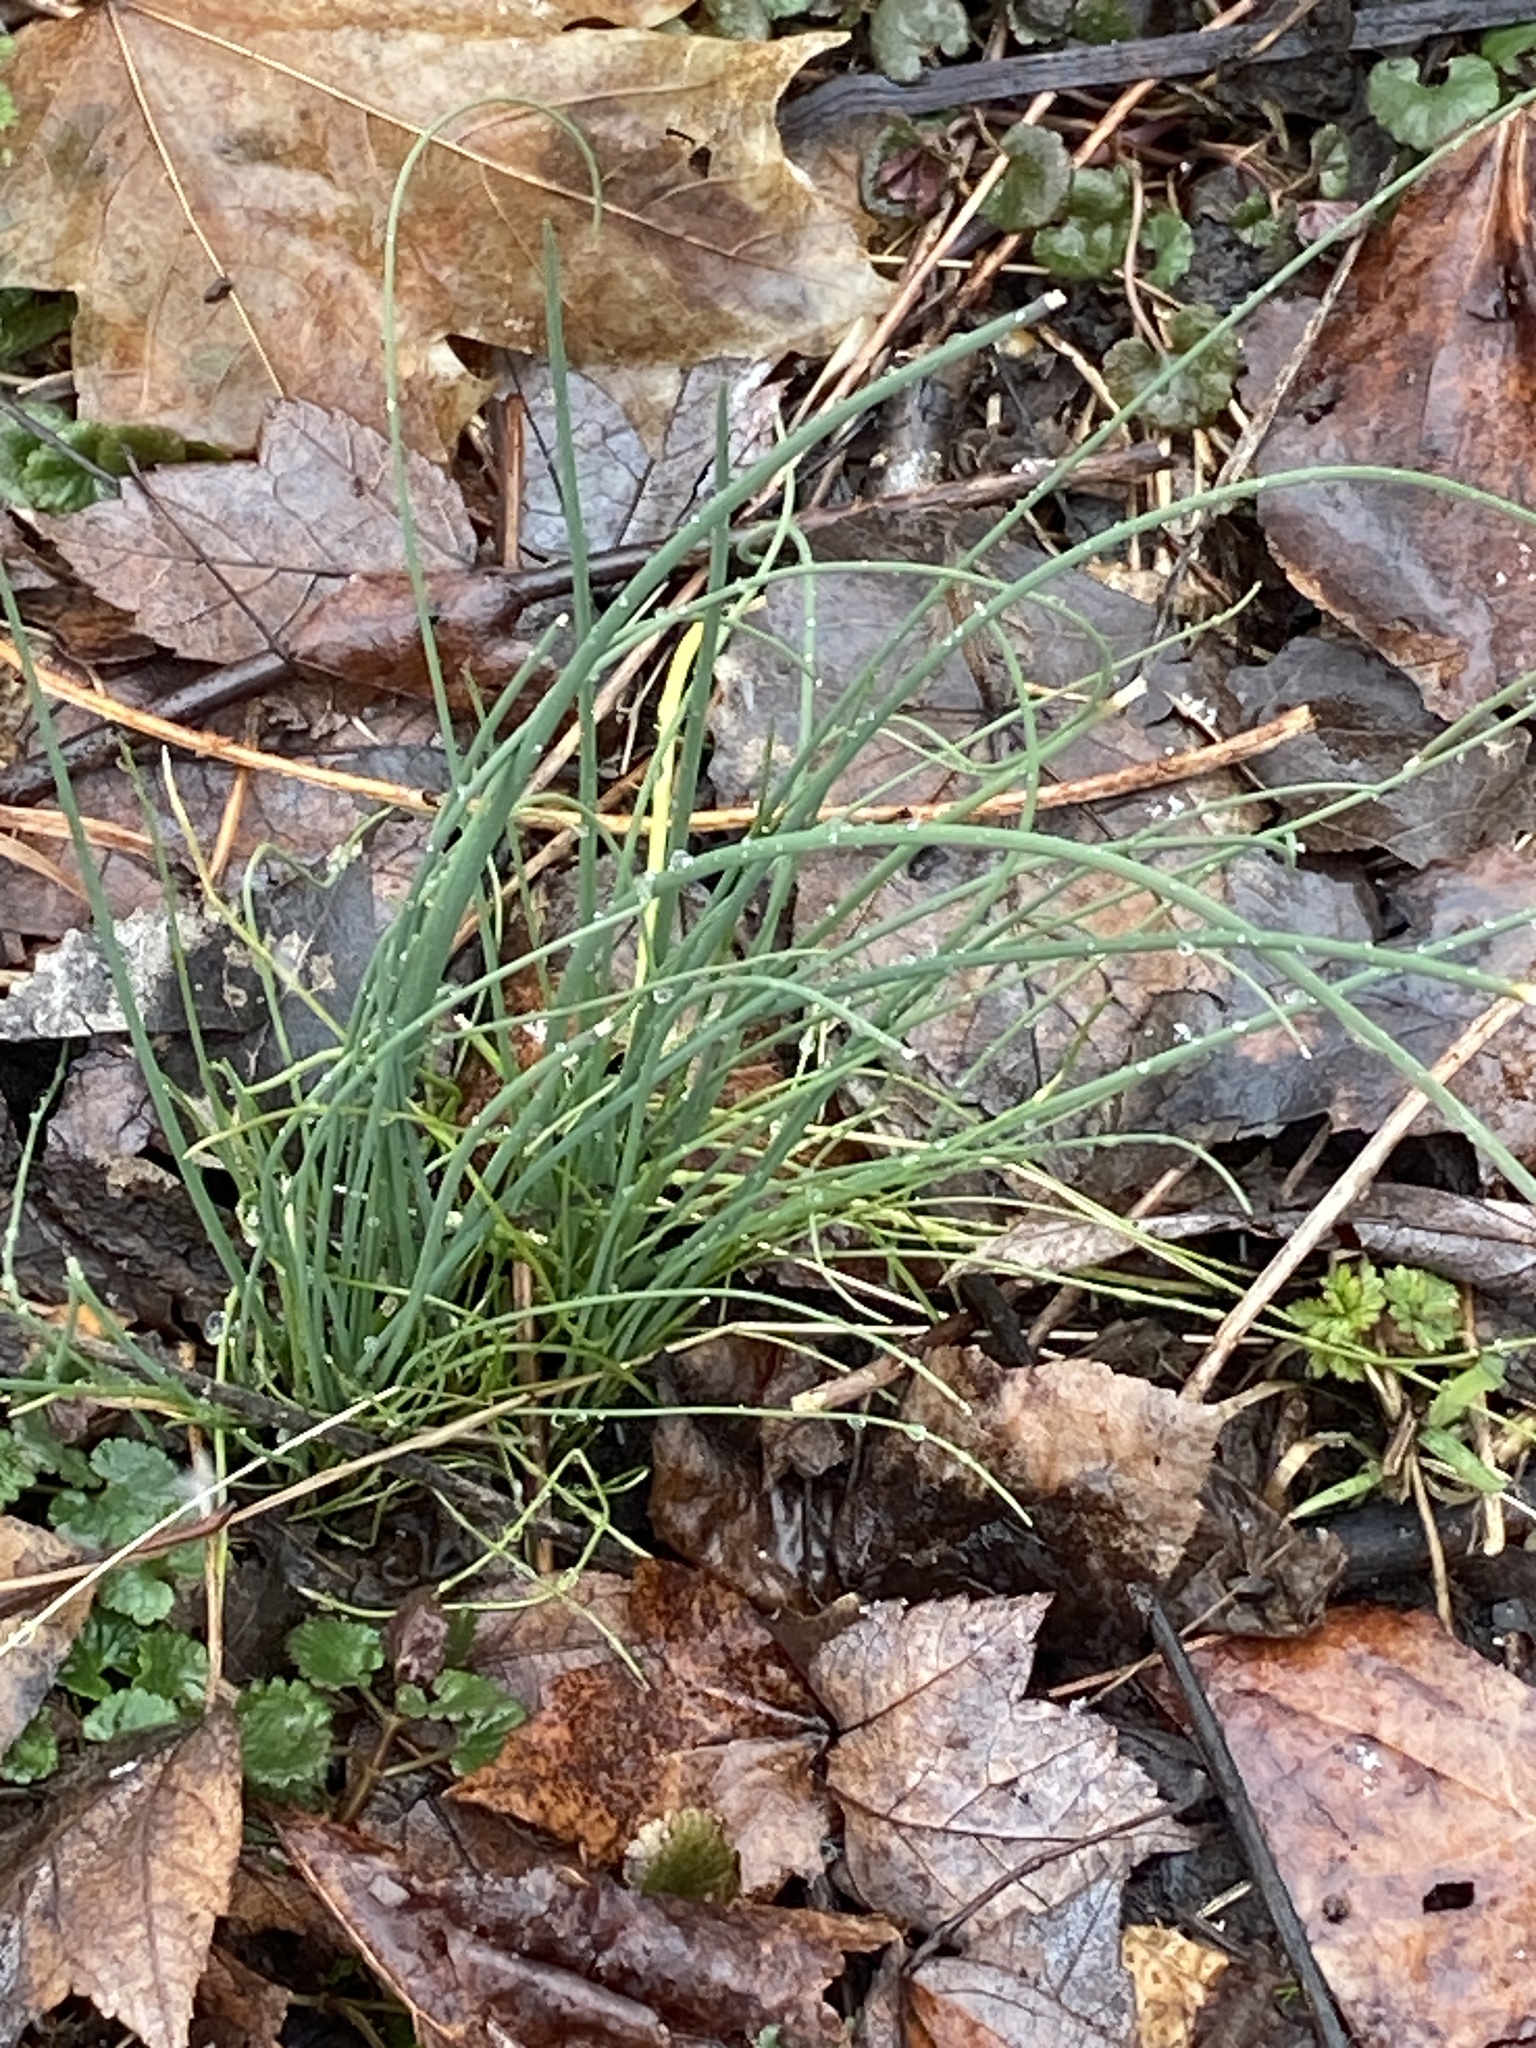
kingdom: Plantae
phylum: Tracheophyta
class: Liliopsida
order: Asparagales
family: Amaryllidaceae
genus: Allium
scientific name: Allium vineale
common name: Crow garlic
